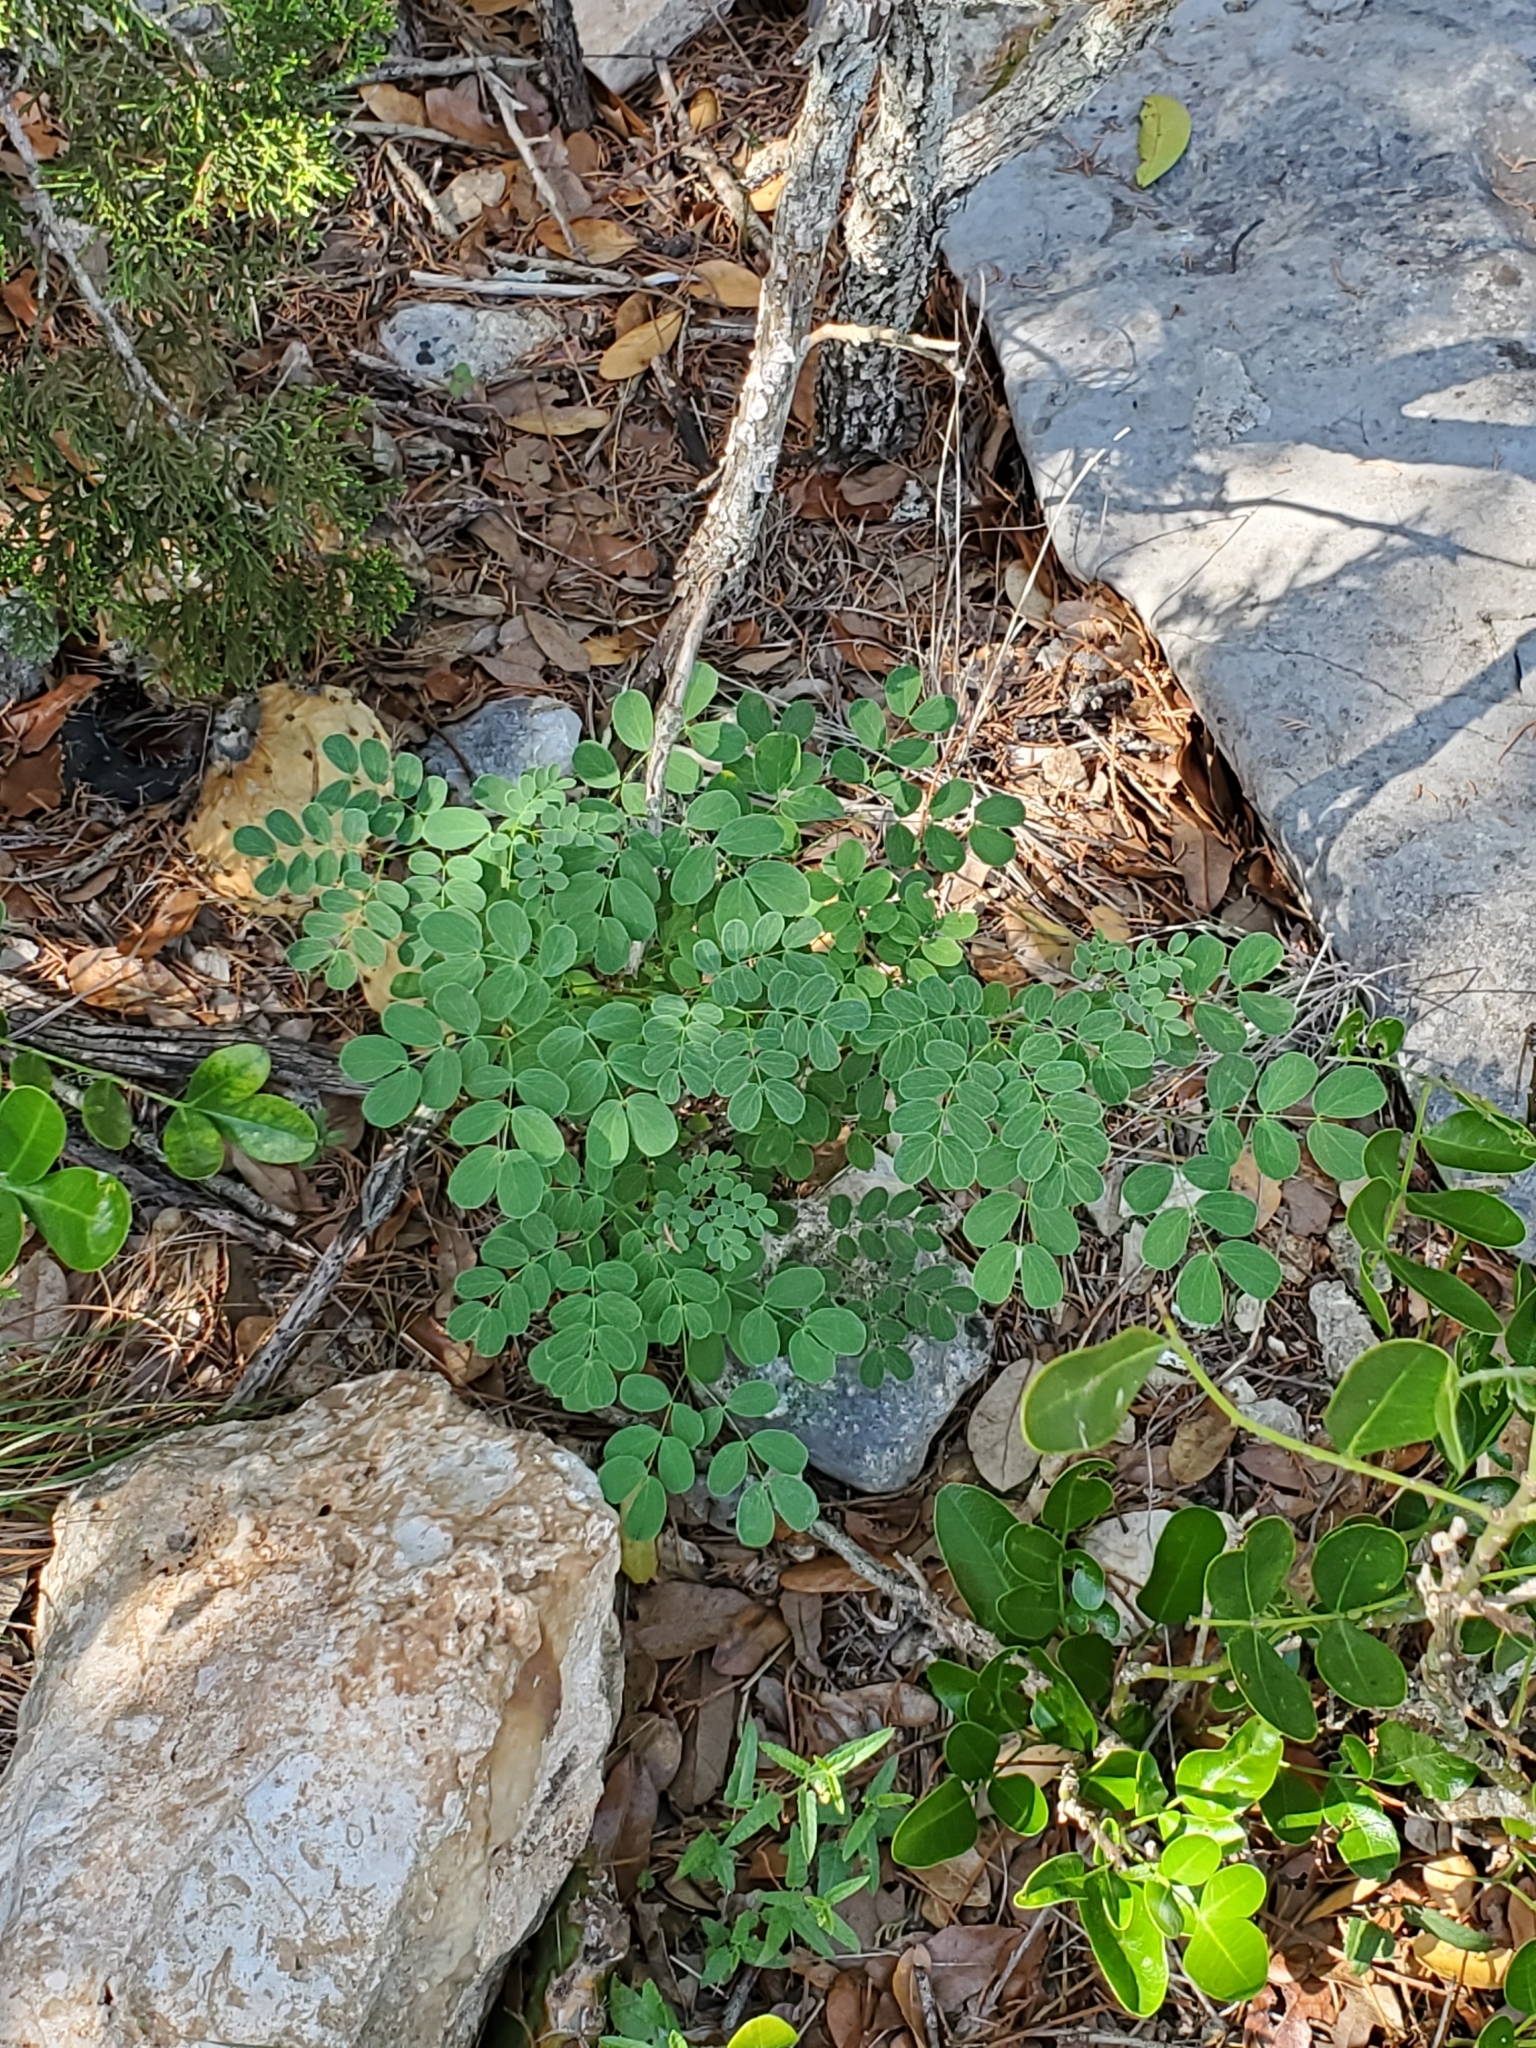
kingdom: Plantae
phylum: Tracheophyta
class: Magnoliopsida
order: Fabales
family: Fabaceae
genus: Leucaena
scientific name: Leucaena retusa
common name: Littleleaf leadtree
